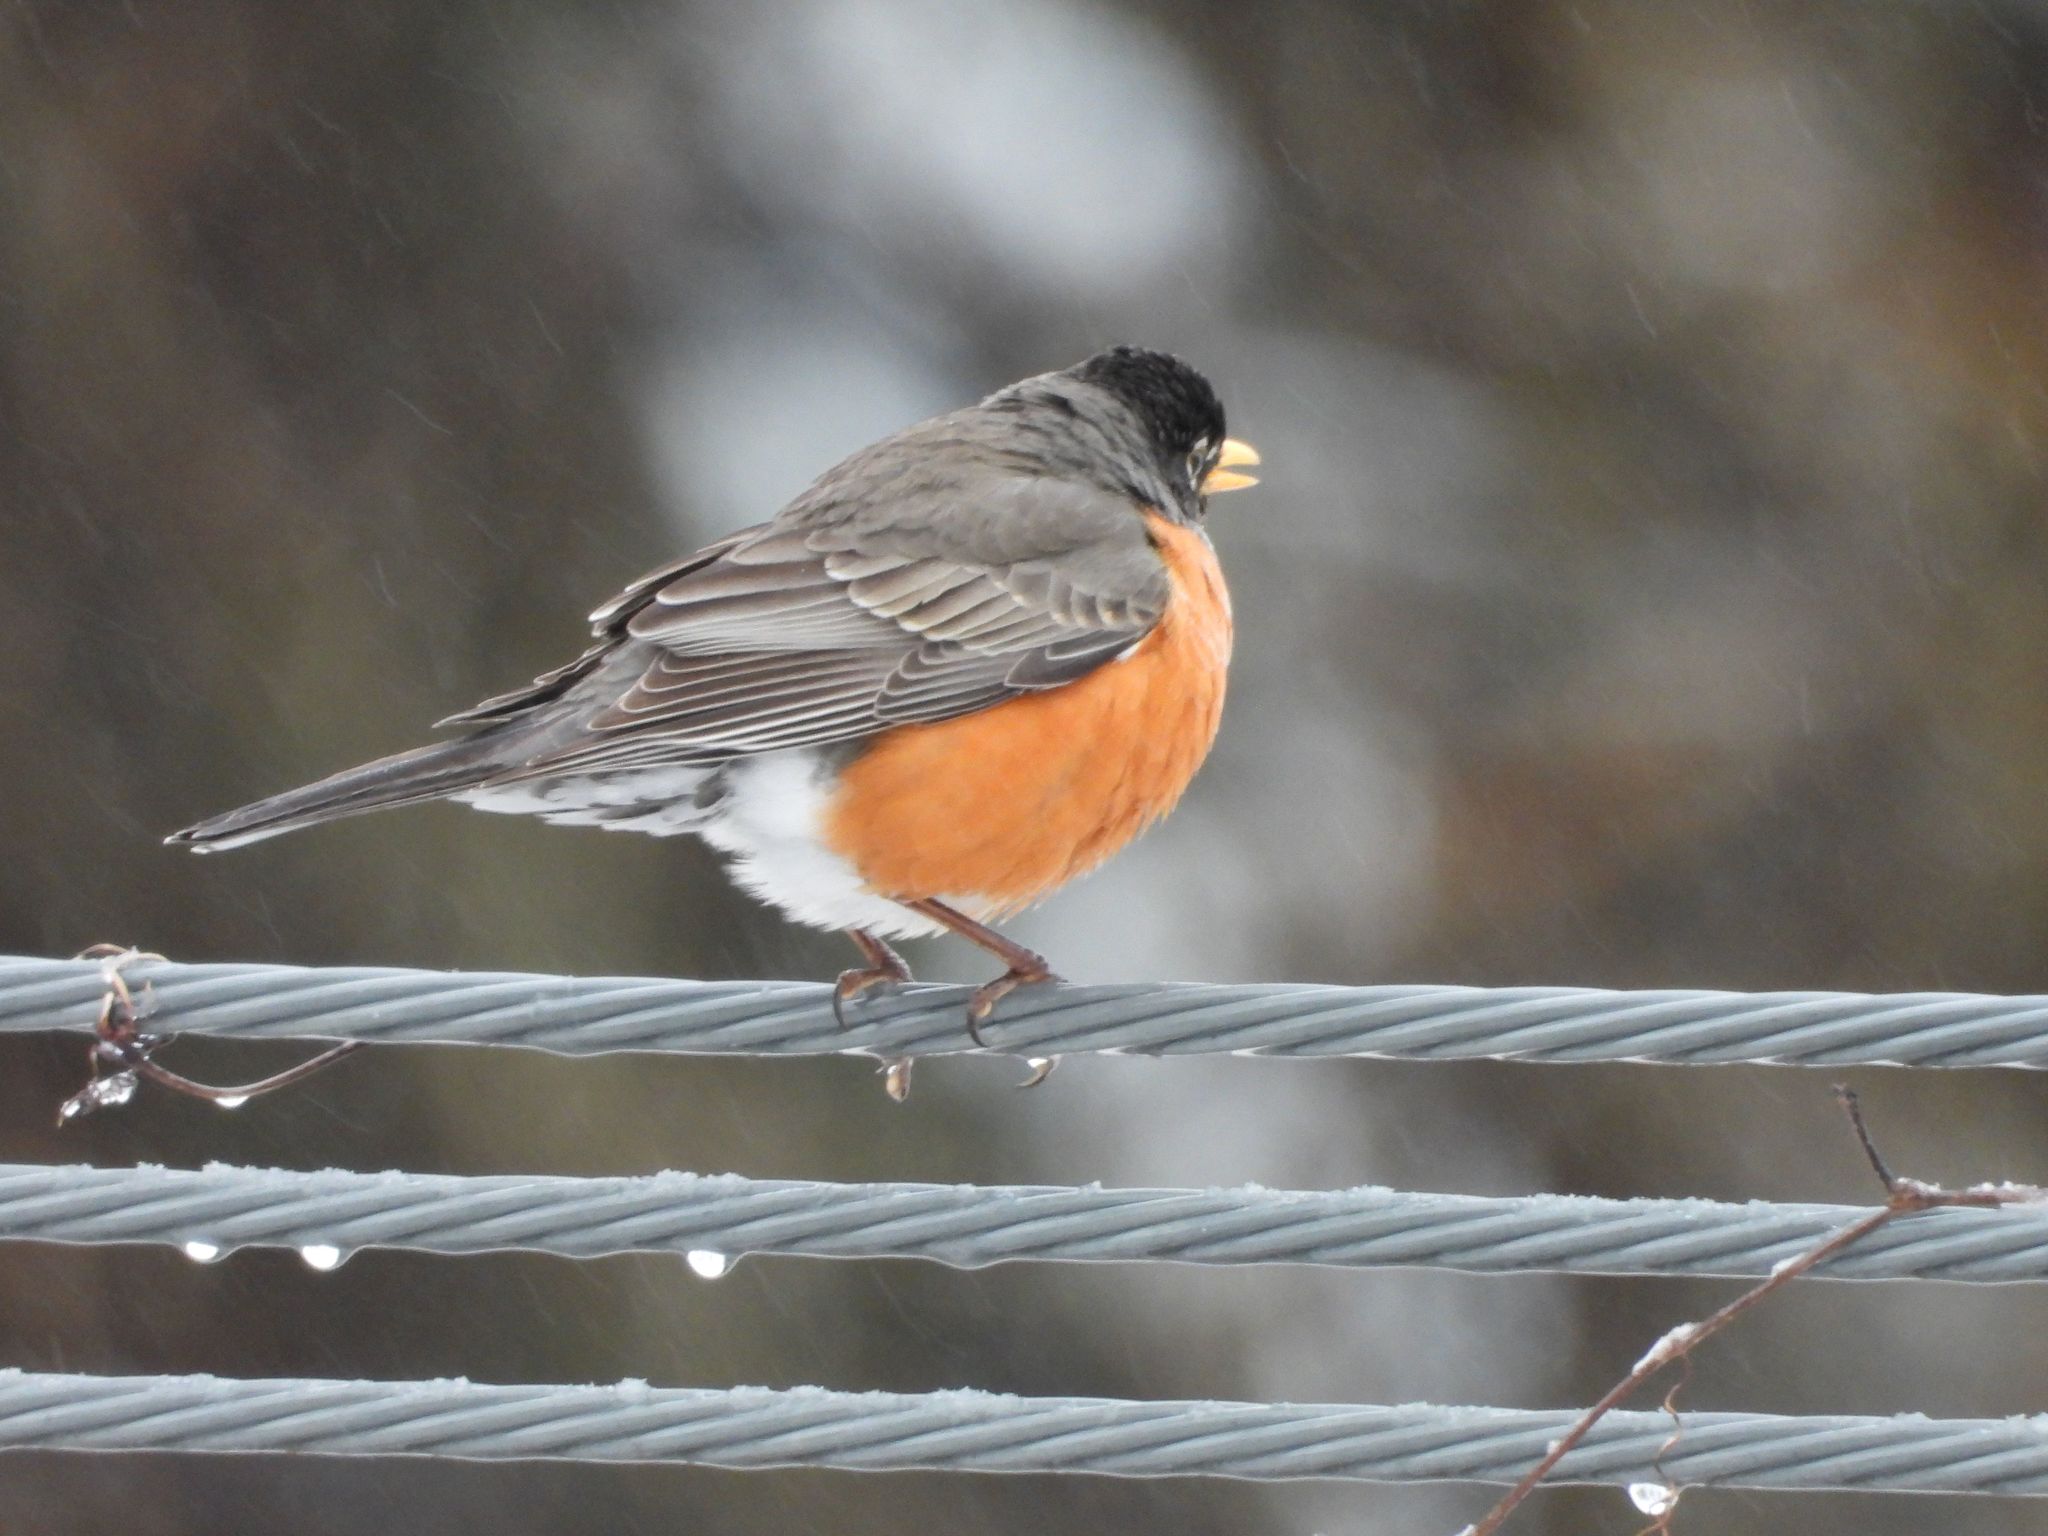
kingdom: Animalia
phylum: Chordata
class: Aves
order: Passeriformes
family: Turdidae
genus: Turdus
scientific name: Turdus migratorius
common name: American robin
